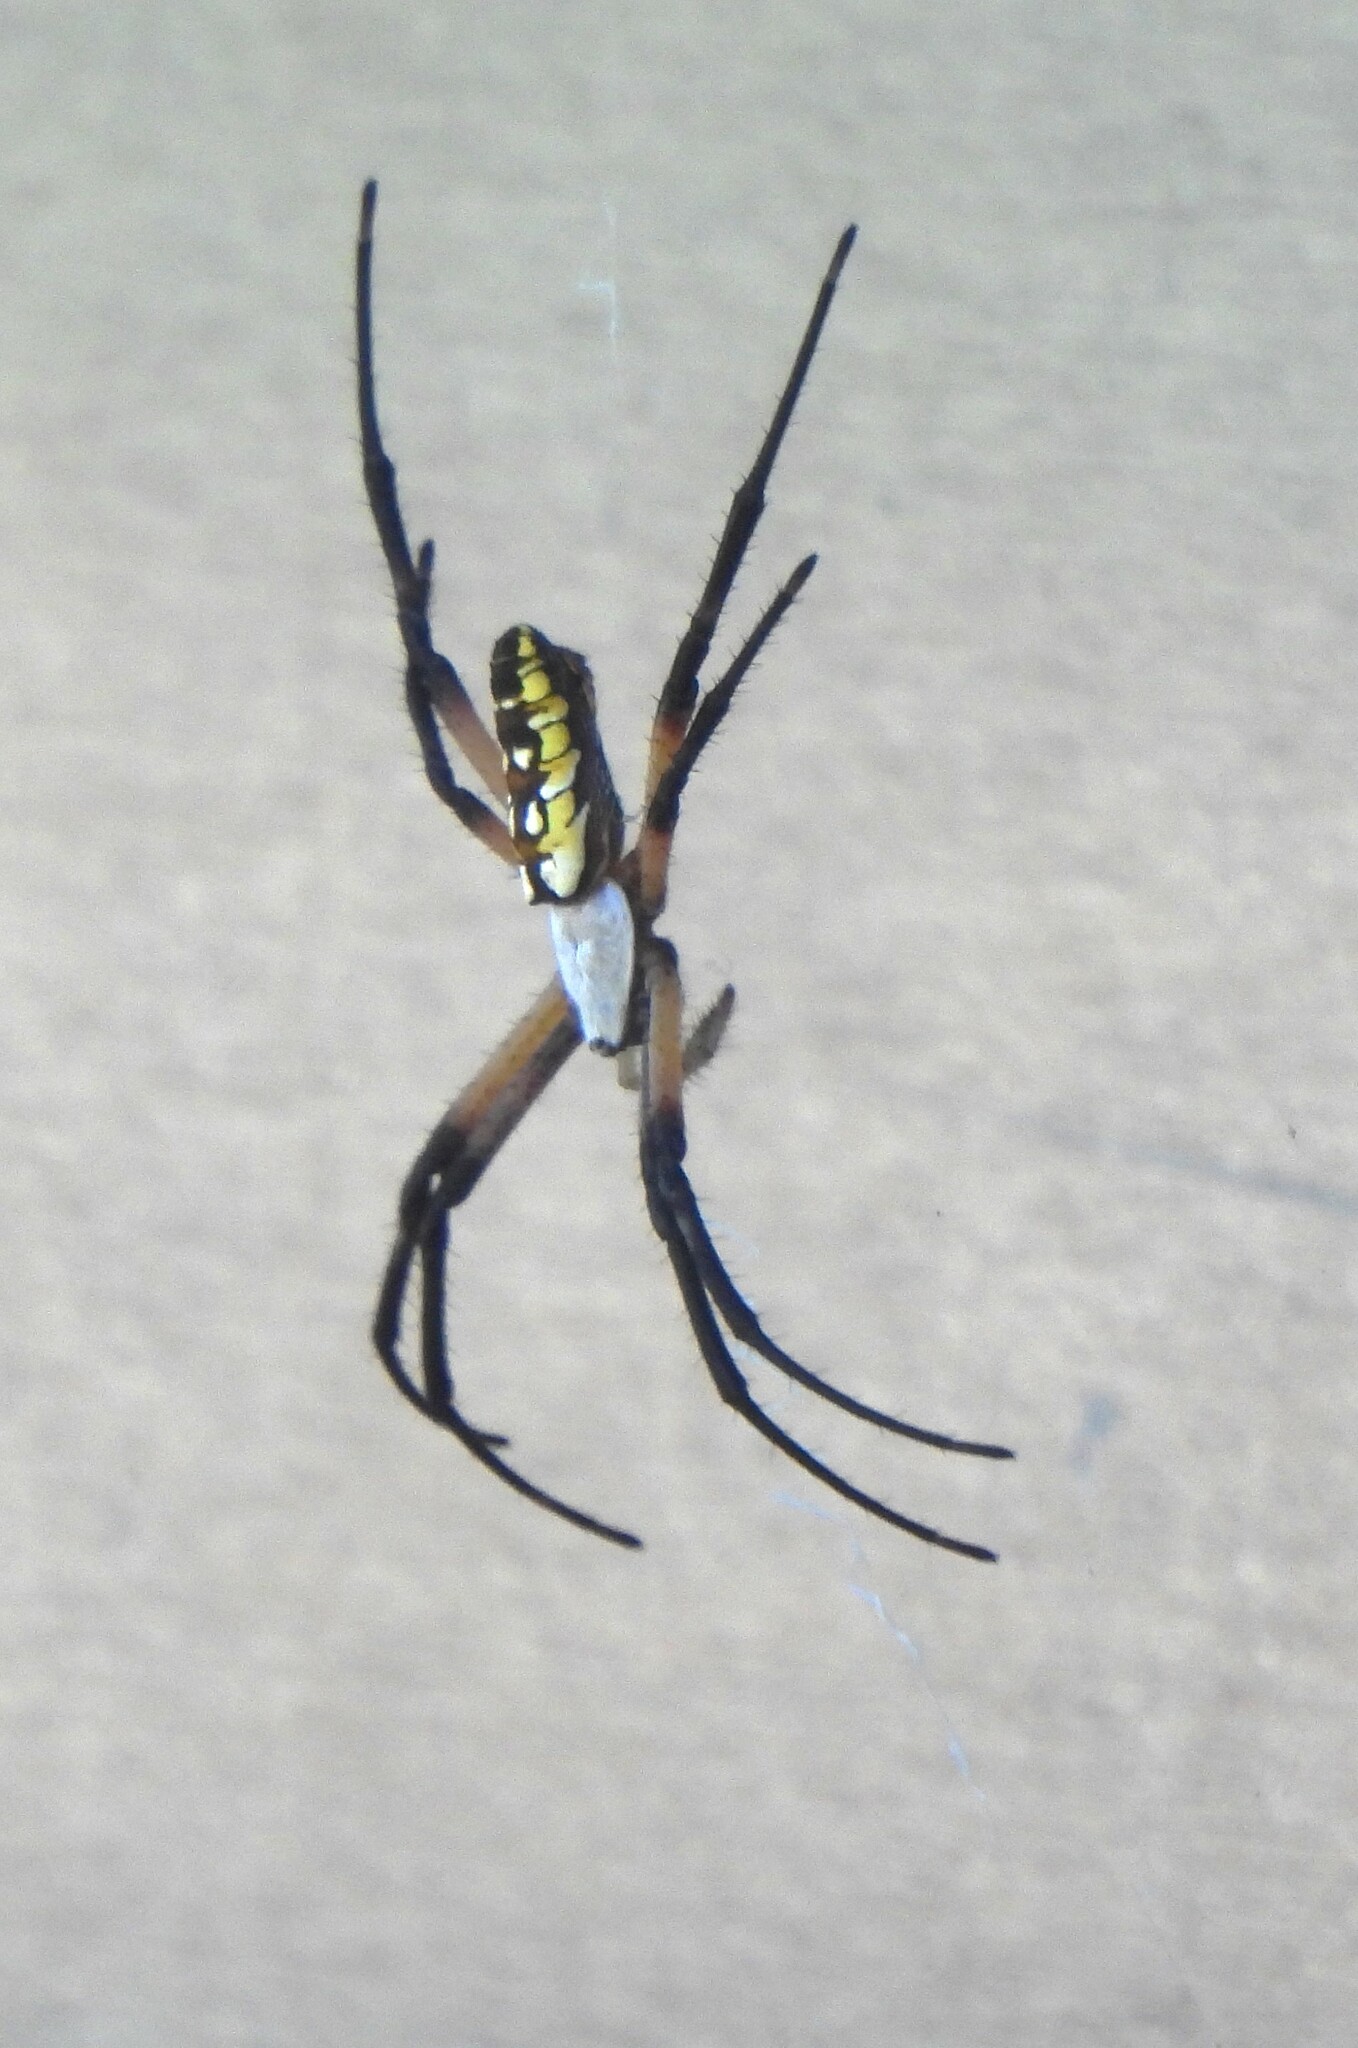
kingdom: Animalia
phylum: Arthropoda
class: Arachnida
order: Araneae
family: Araneidae
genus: Argiope
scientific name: Argiope aurantia
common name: Orb weavers
